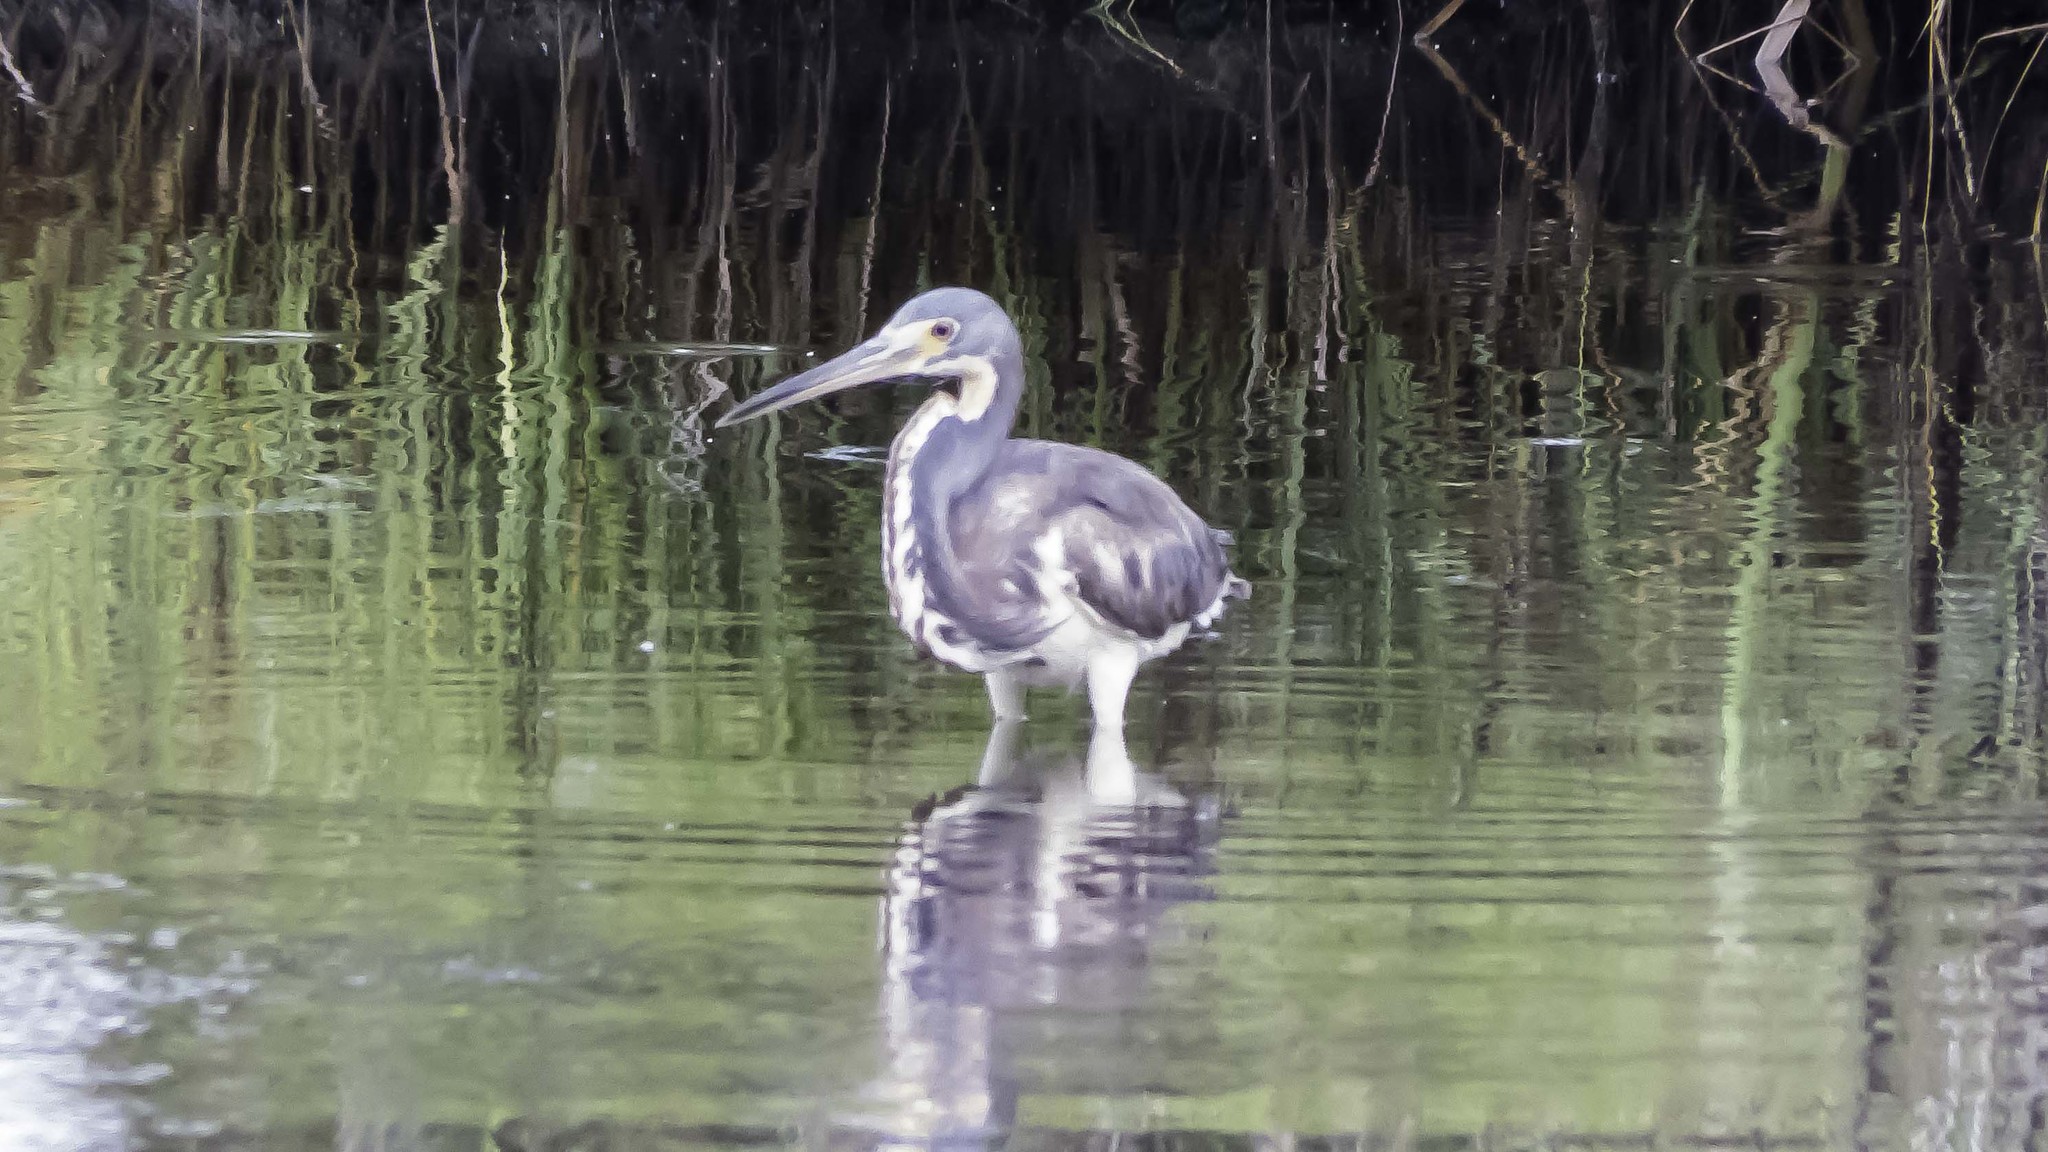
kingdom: Animalia
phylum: Chordata
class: Aves
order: Pelecaniformes
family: Ardeidae
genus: Egretta
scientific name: Egretta tricolor
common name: Tricolored heron
